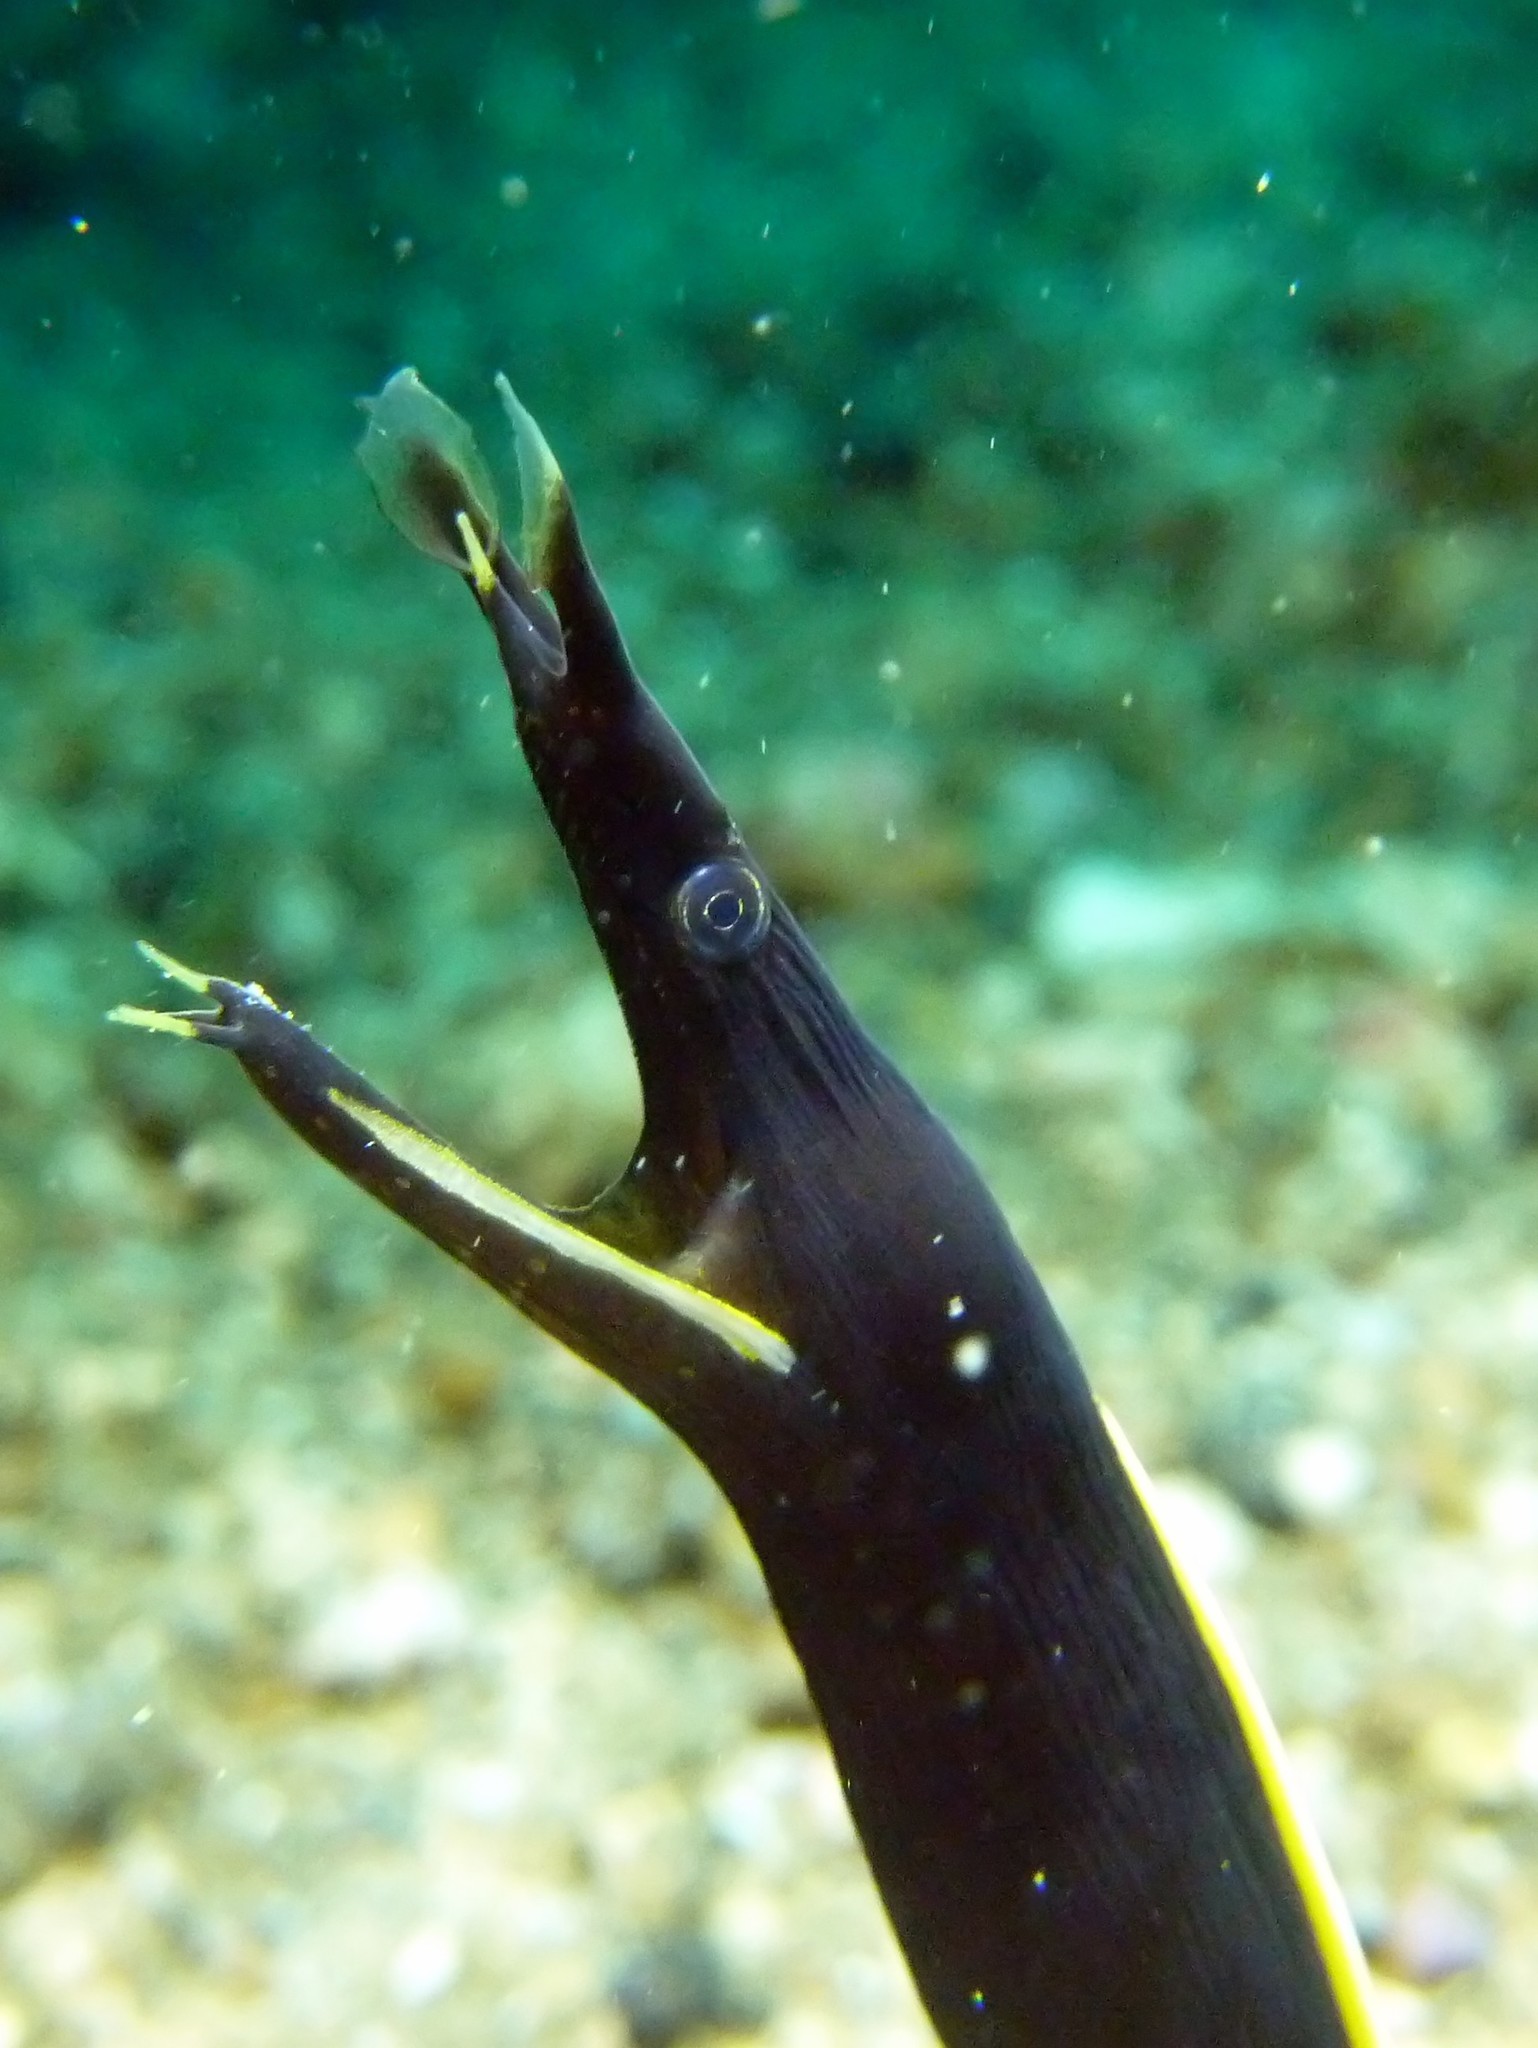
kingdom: Animalia
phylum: Chordata
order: Anguilliformes
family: Muraenidae
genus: Rhinomuraena
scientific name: Rhinomuraena quaesita
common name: Ribbon eel
